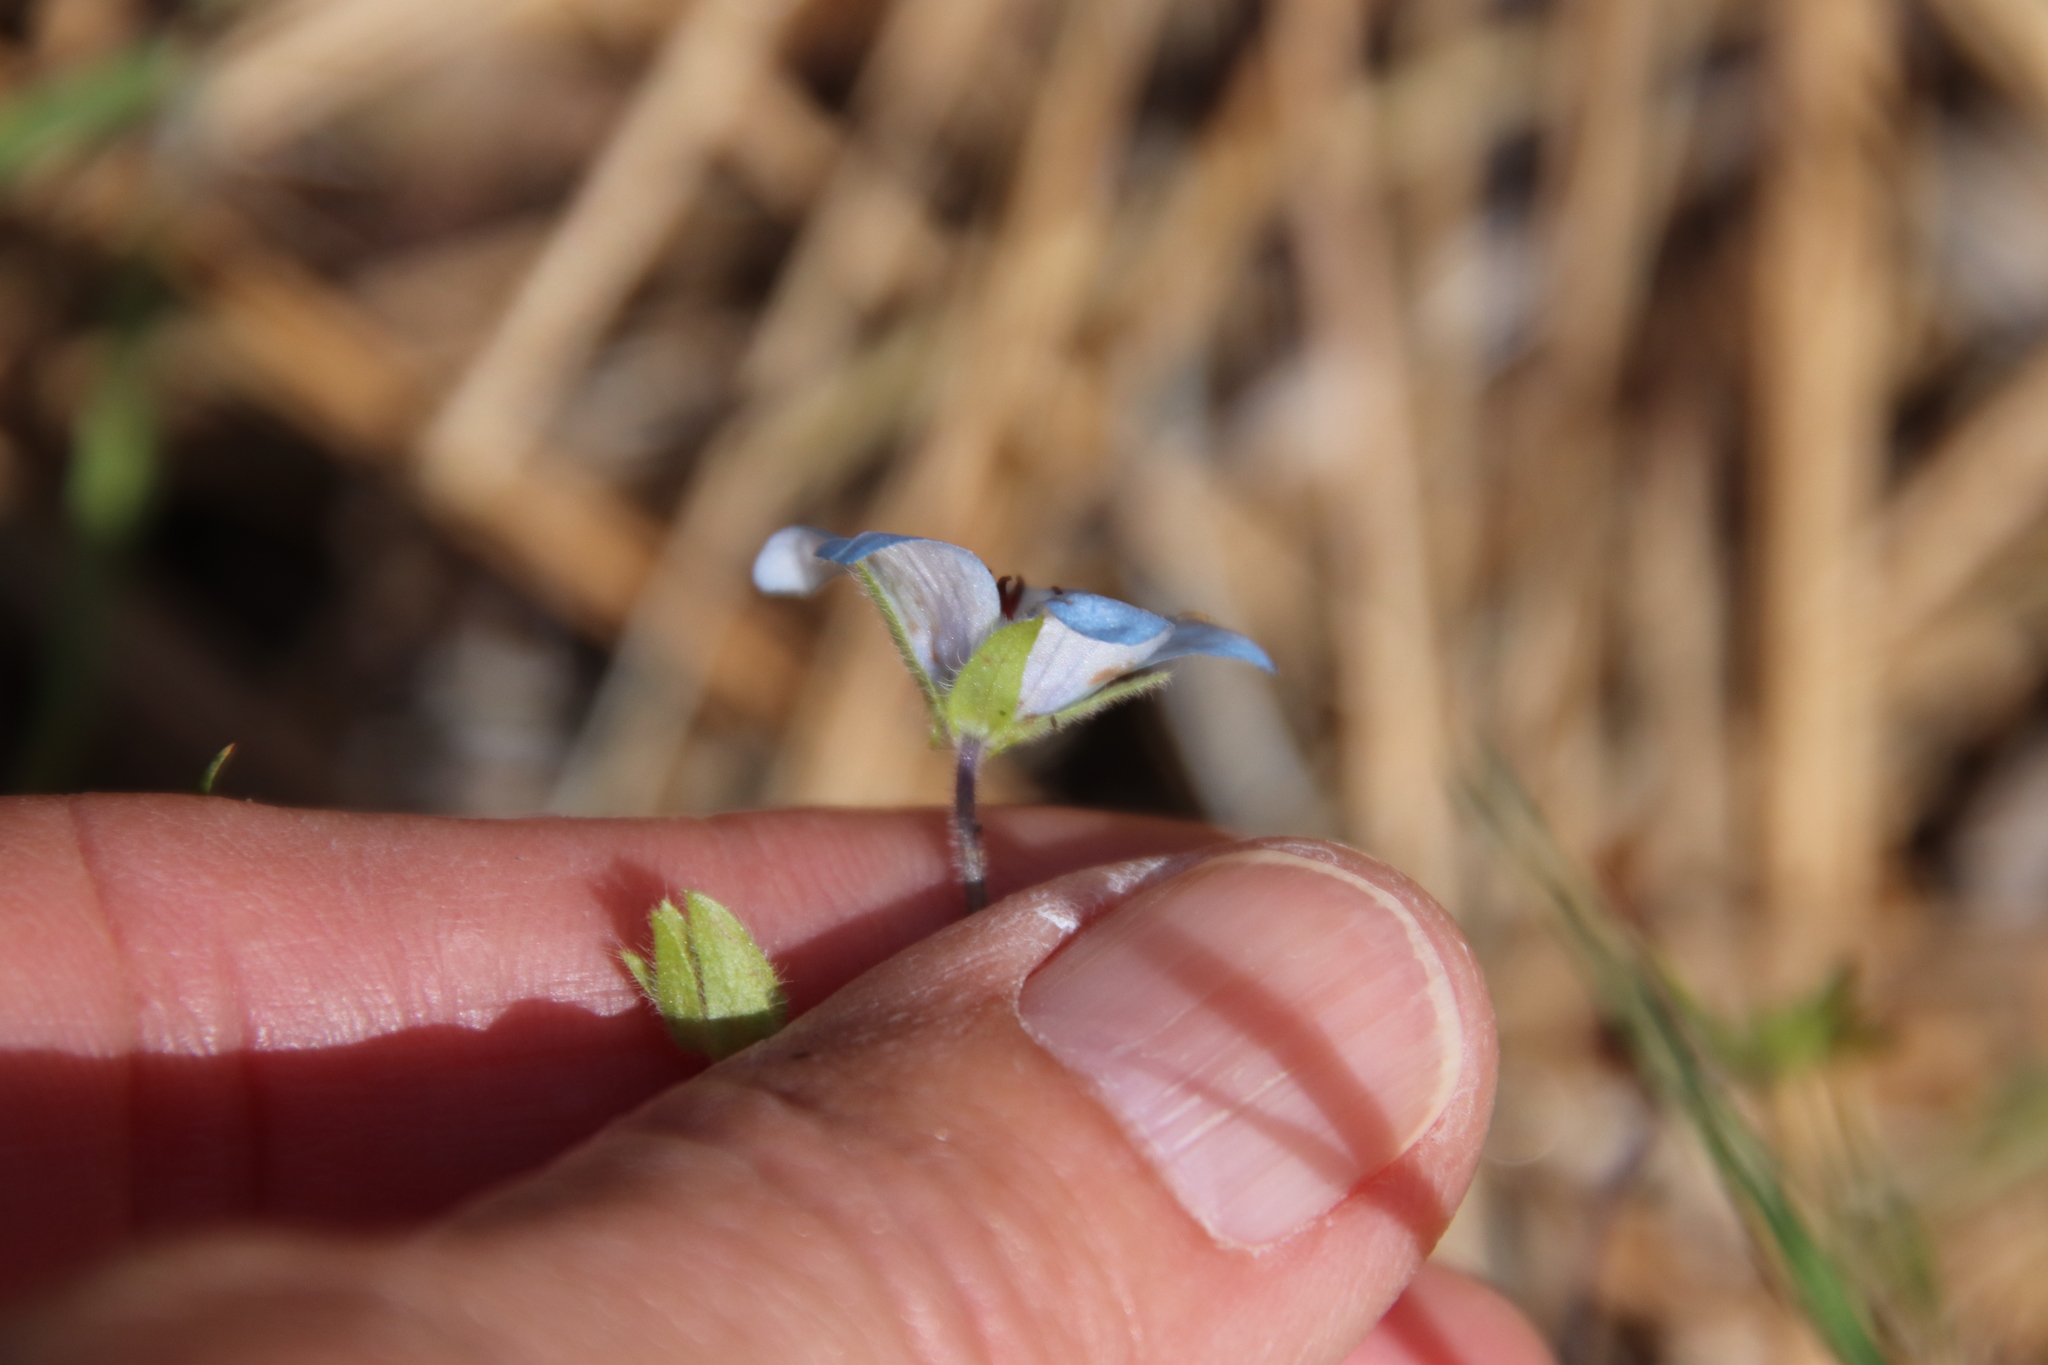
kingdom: Plantae
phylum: Tracheophyta
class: Magnoliopsida
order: Boraginales
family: Hydrophyllaceae
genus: Nemophila
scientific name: Nemophila menziesii
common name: Baby's-blue-eyes
